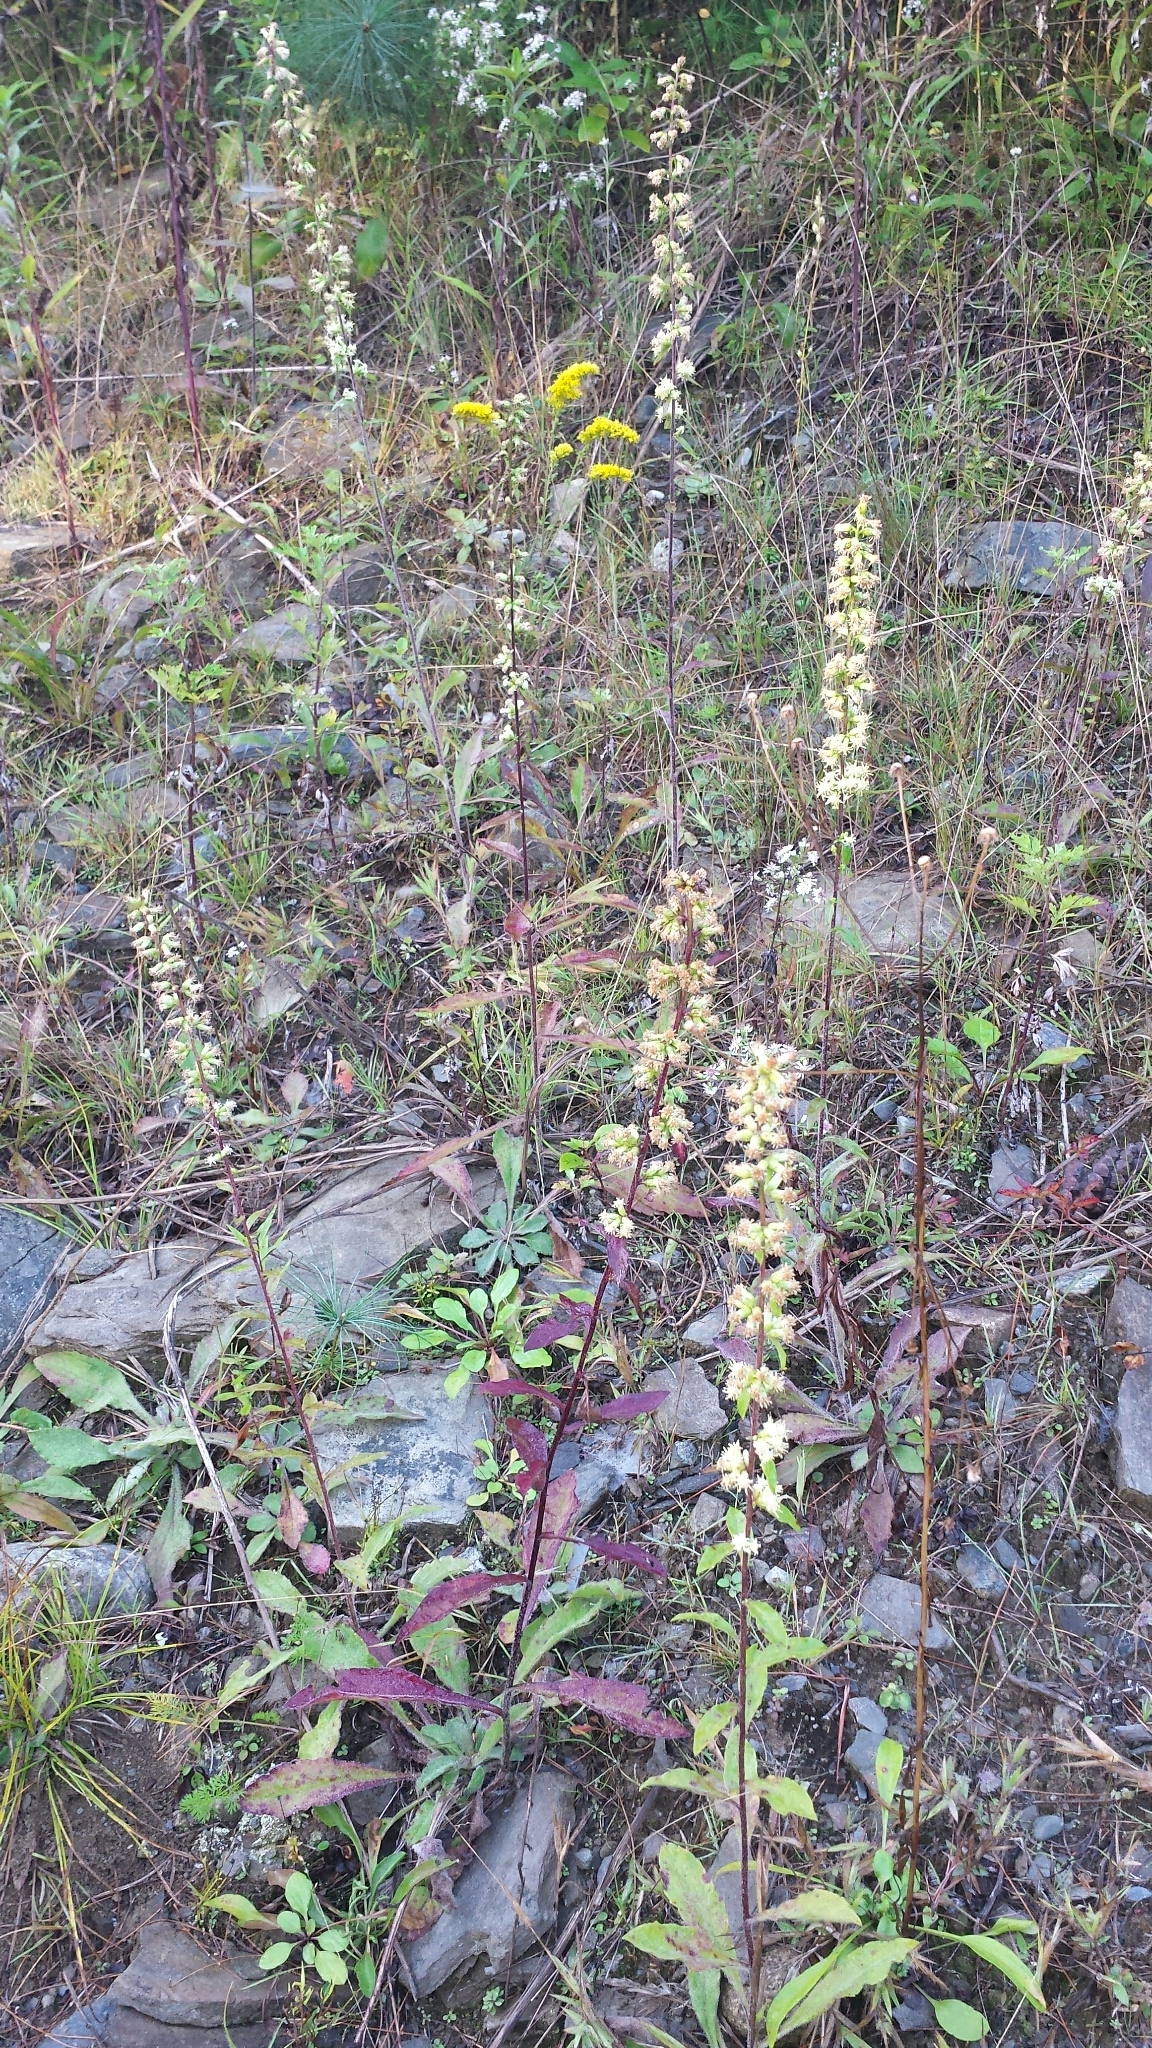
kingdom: Plantae
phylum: Tracheophyta
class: Magnoliopsida
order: Asterales
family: Asteraceae
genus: Solidago
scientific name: Solidago bicolor
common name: Silverrod
